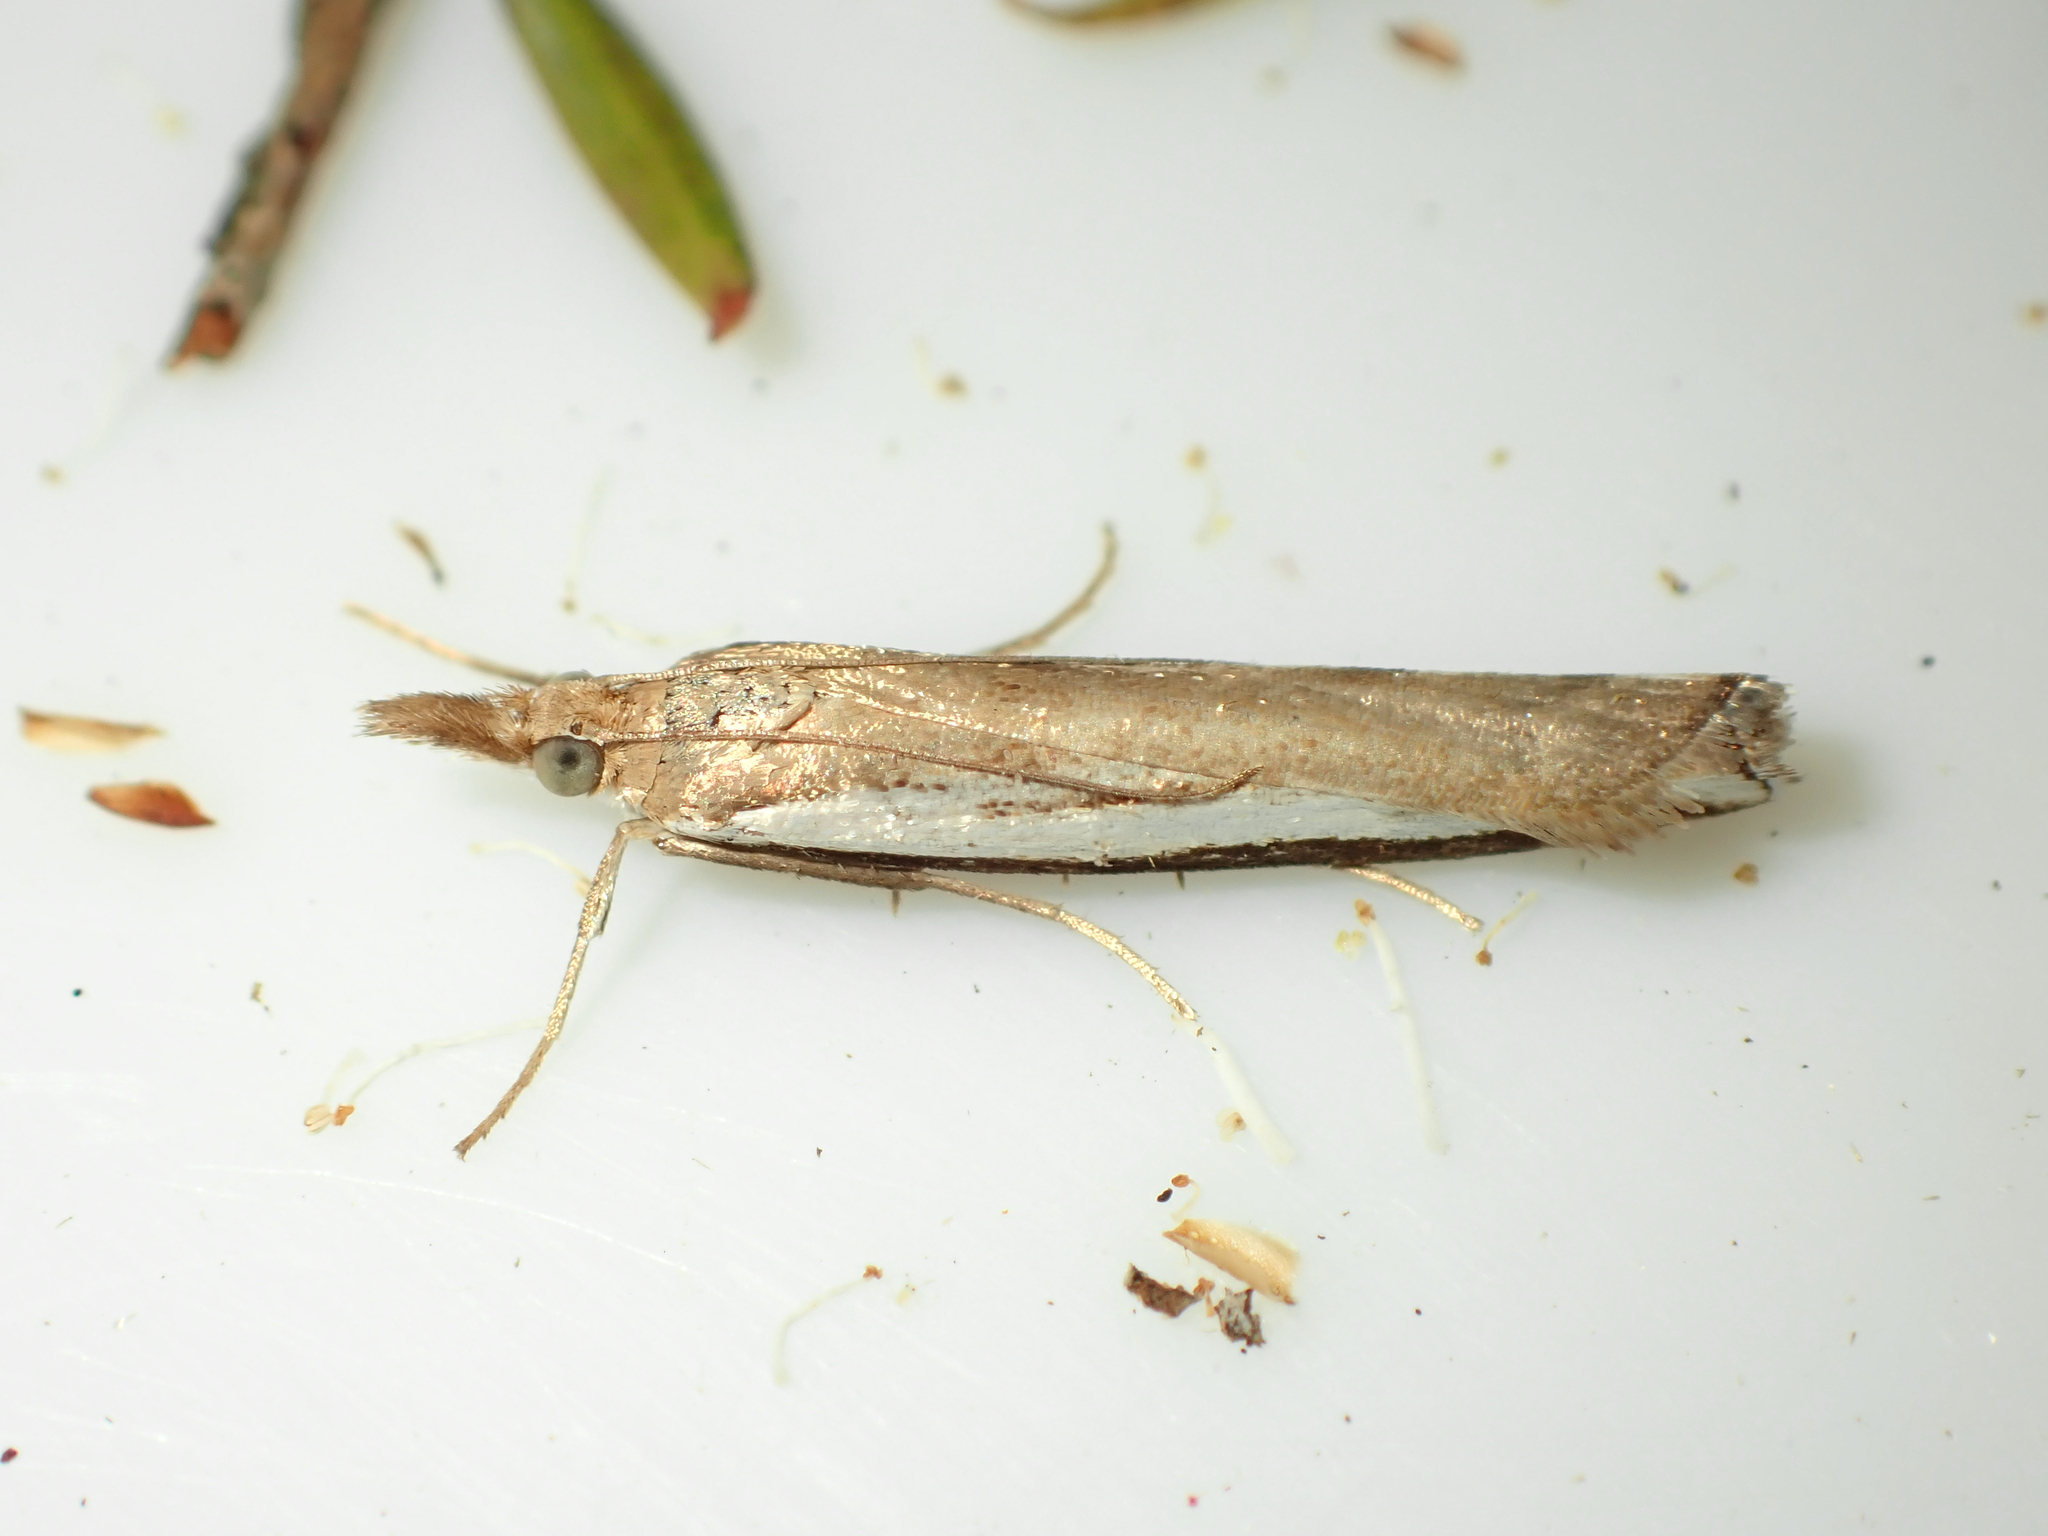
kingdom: Animalia
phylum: Arthropoda
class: Insecta
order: Lepidoptera
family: Crambidae
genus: Orocrambus
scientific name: Orocrambus flexuosellus
